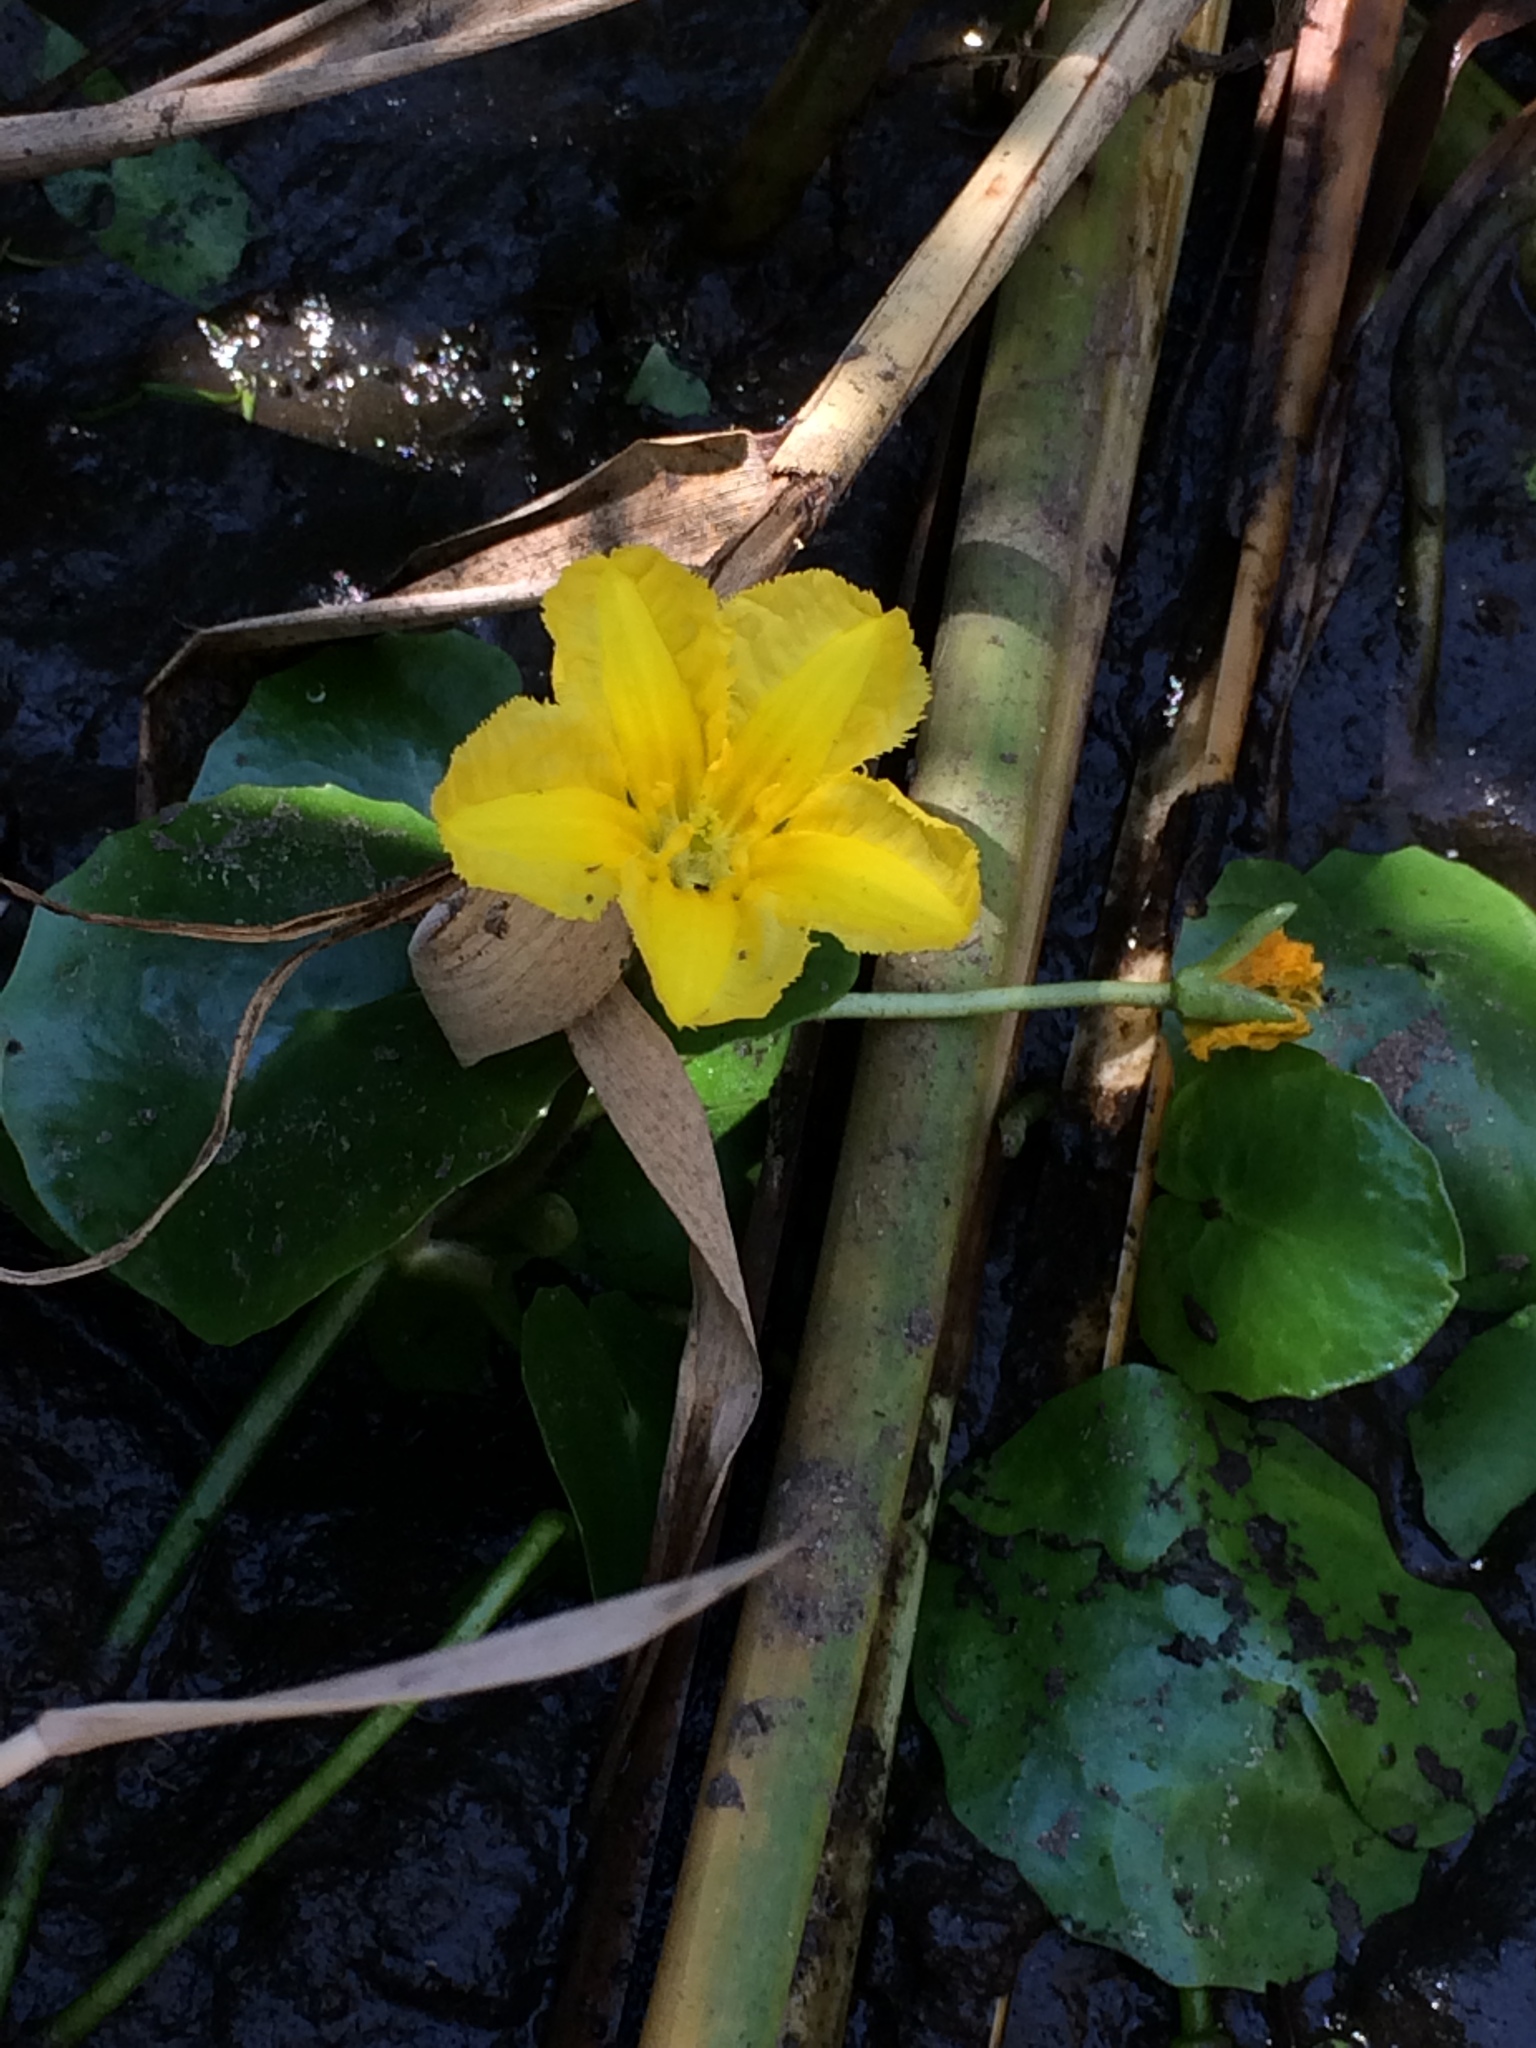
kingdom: Plantae
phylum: Tracheophyta
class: Magnoliopsida
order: Asterales
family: Menyanthaceae
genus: Nymphoides
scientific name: Nymphoides peltata
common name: Fringed water-lily
